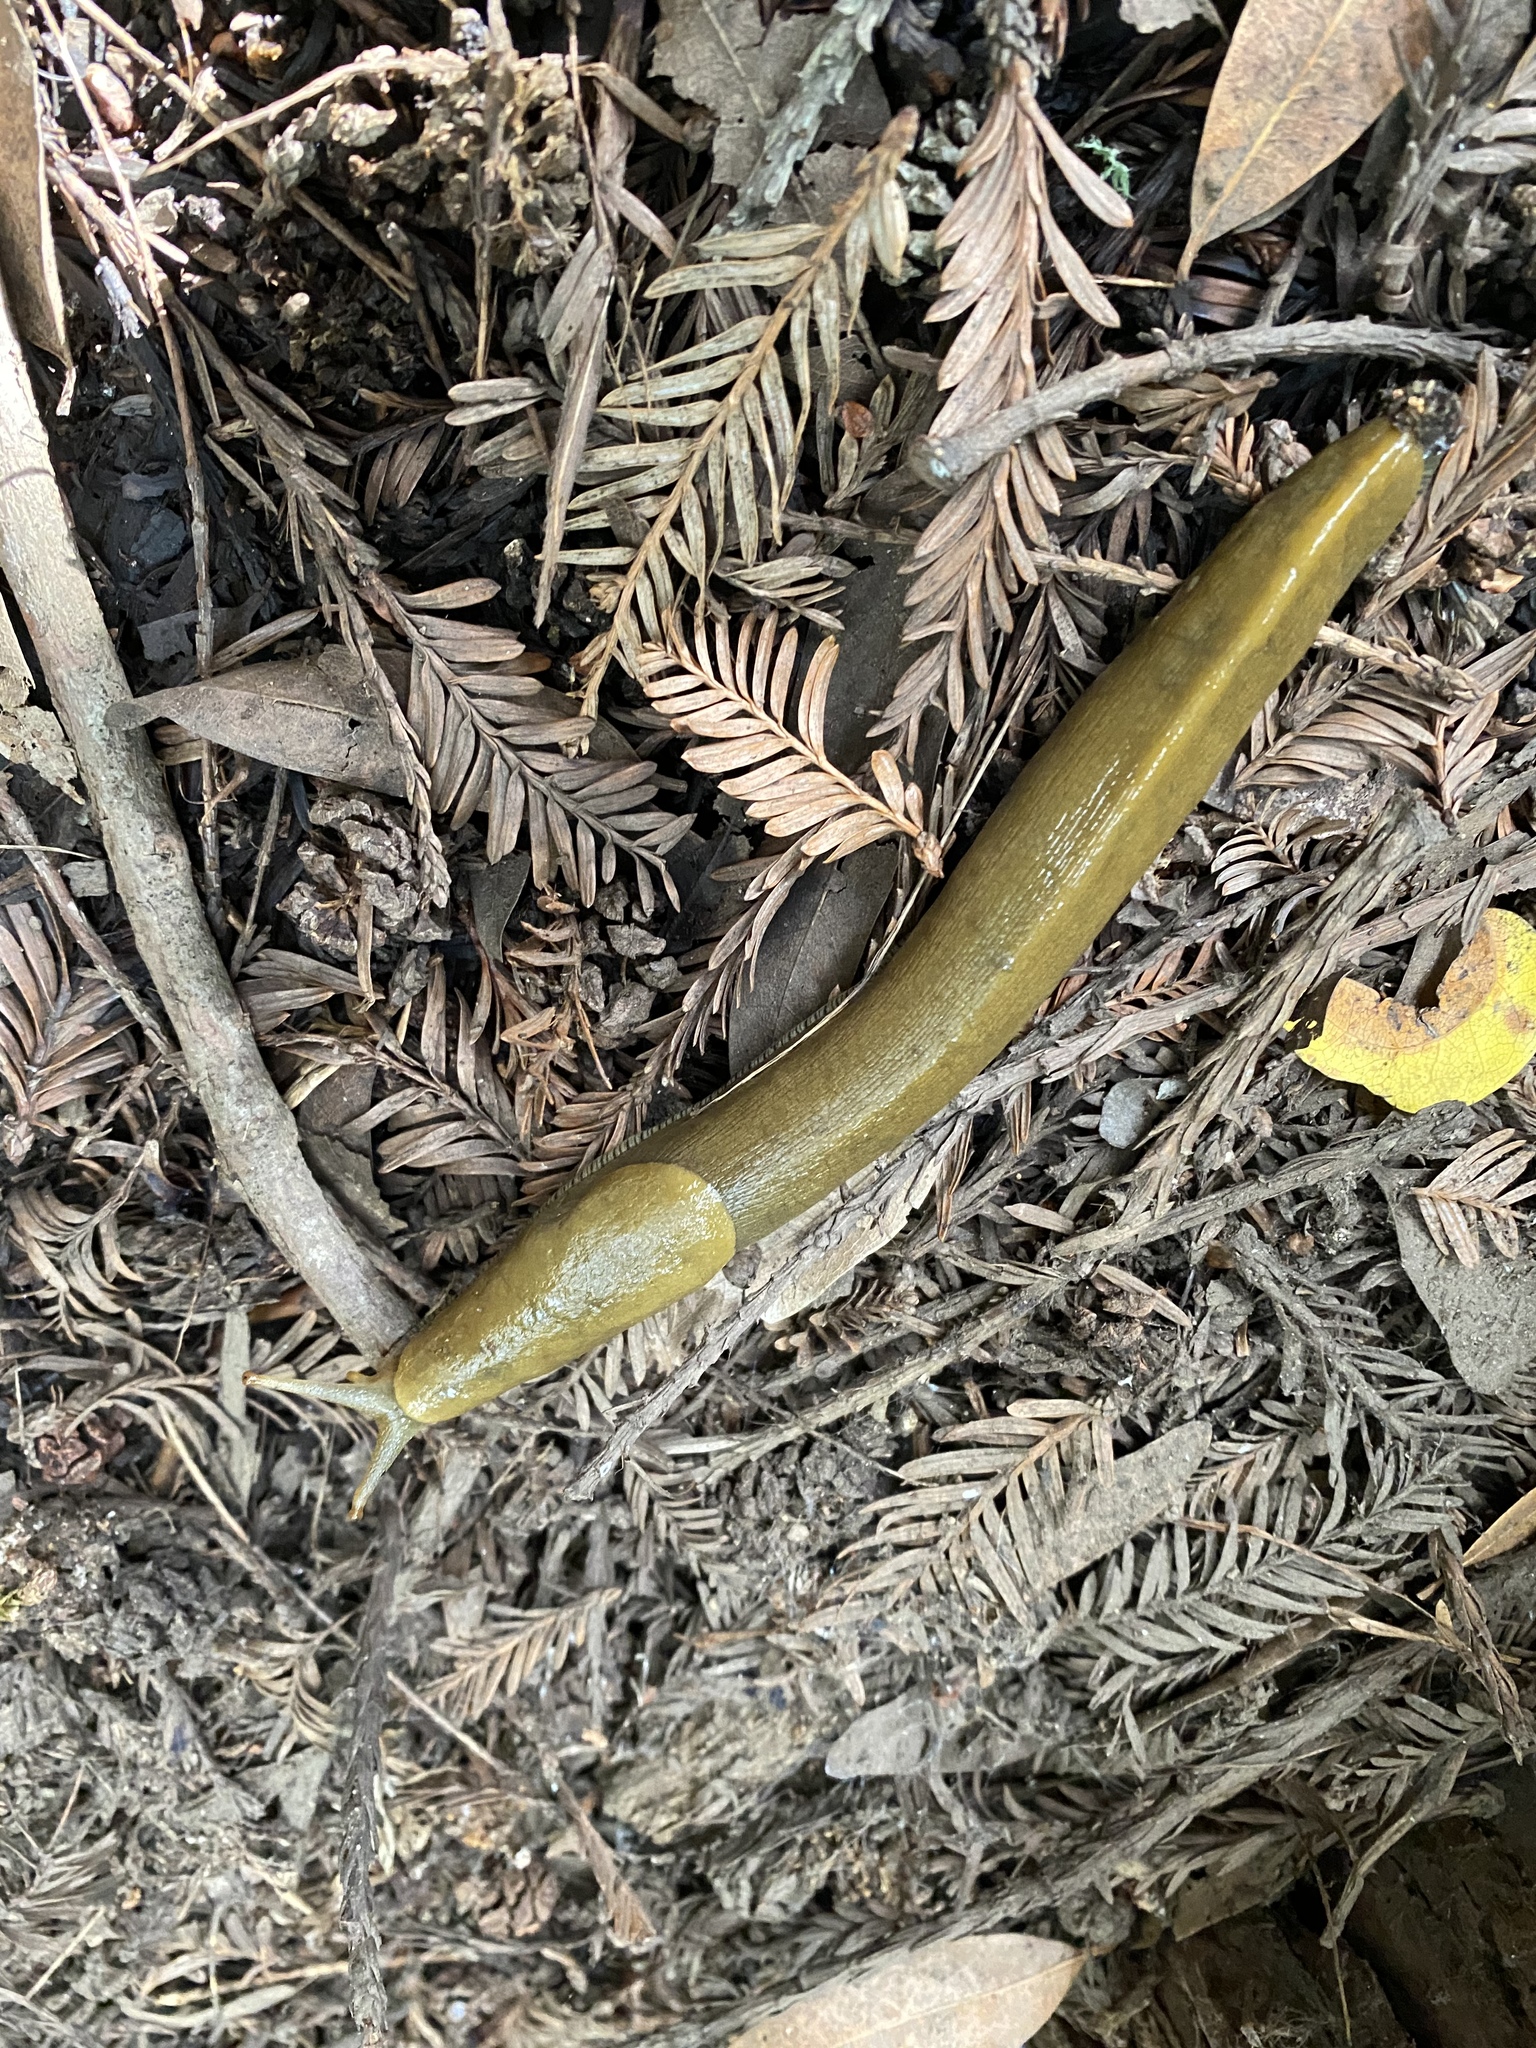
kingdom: Animalia
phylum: Mollusca
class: Gastropoda
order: Stylommatophora
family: Ariolimacidae
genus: Ariolimax
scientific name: Ariolimax buttoni
